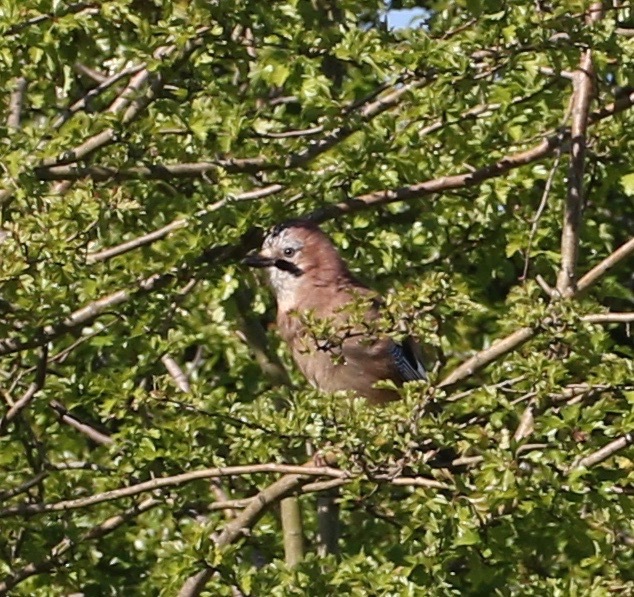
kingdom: Animalia
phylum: Chordata
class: Aves
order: Passeriformes
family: Corvidae
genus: Garrulus
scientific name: Garrulus glandarius
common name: Eurasian jay
